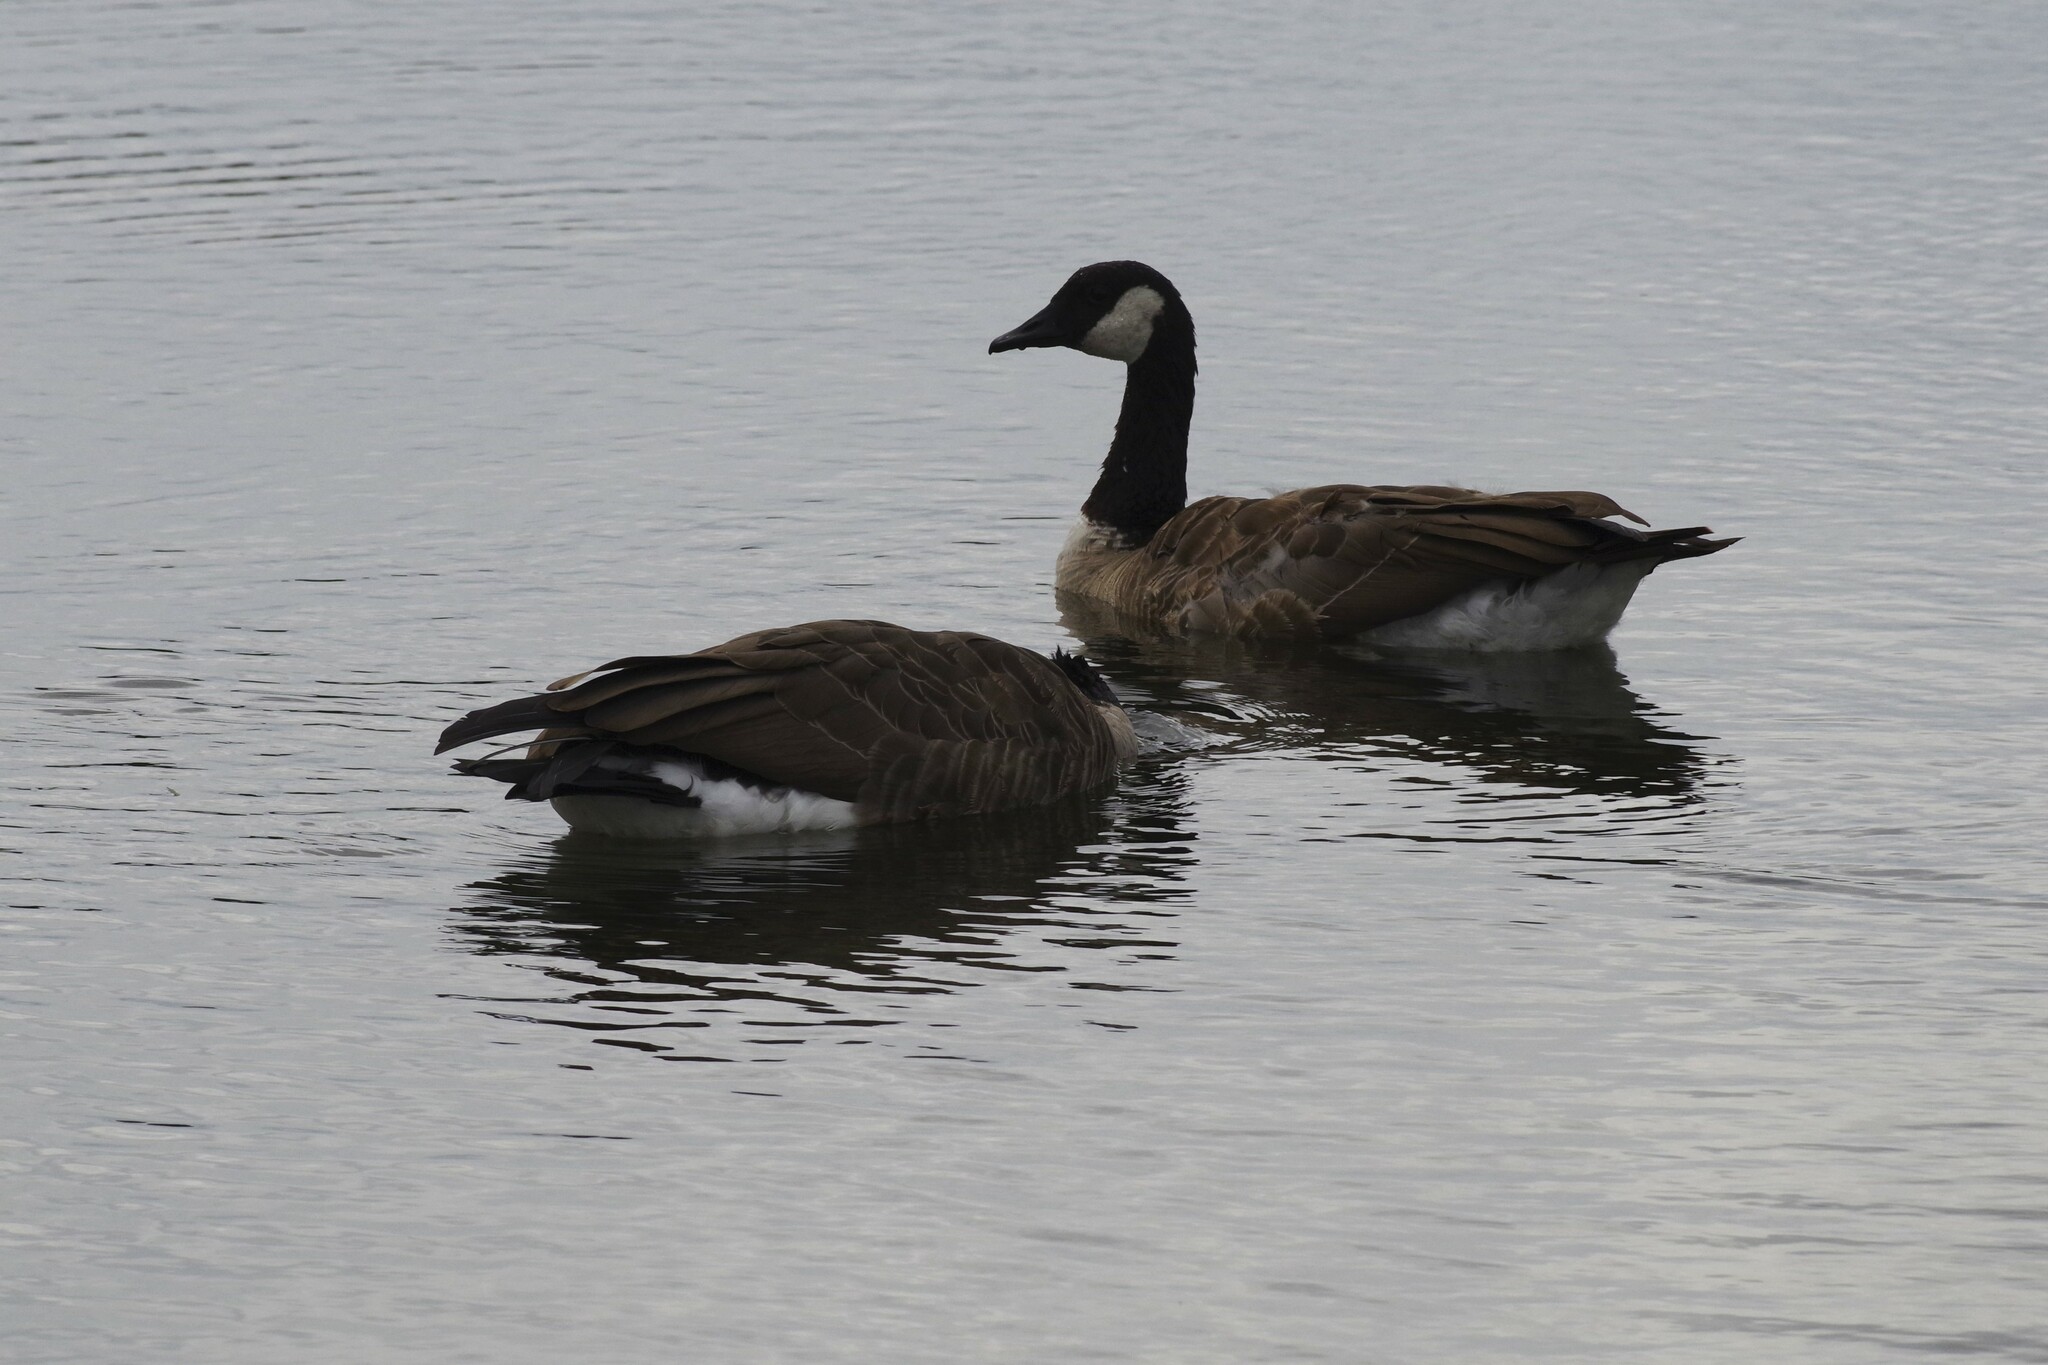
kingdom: Animalia
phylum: Chordata
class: Aves
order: Anseriformes
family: Anatidae
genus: Branta
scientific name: Branta canadensis
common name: Canada goose
